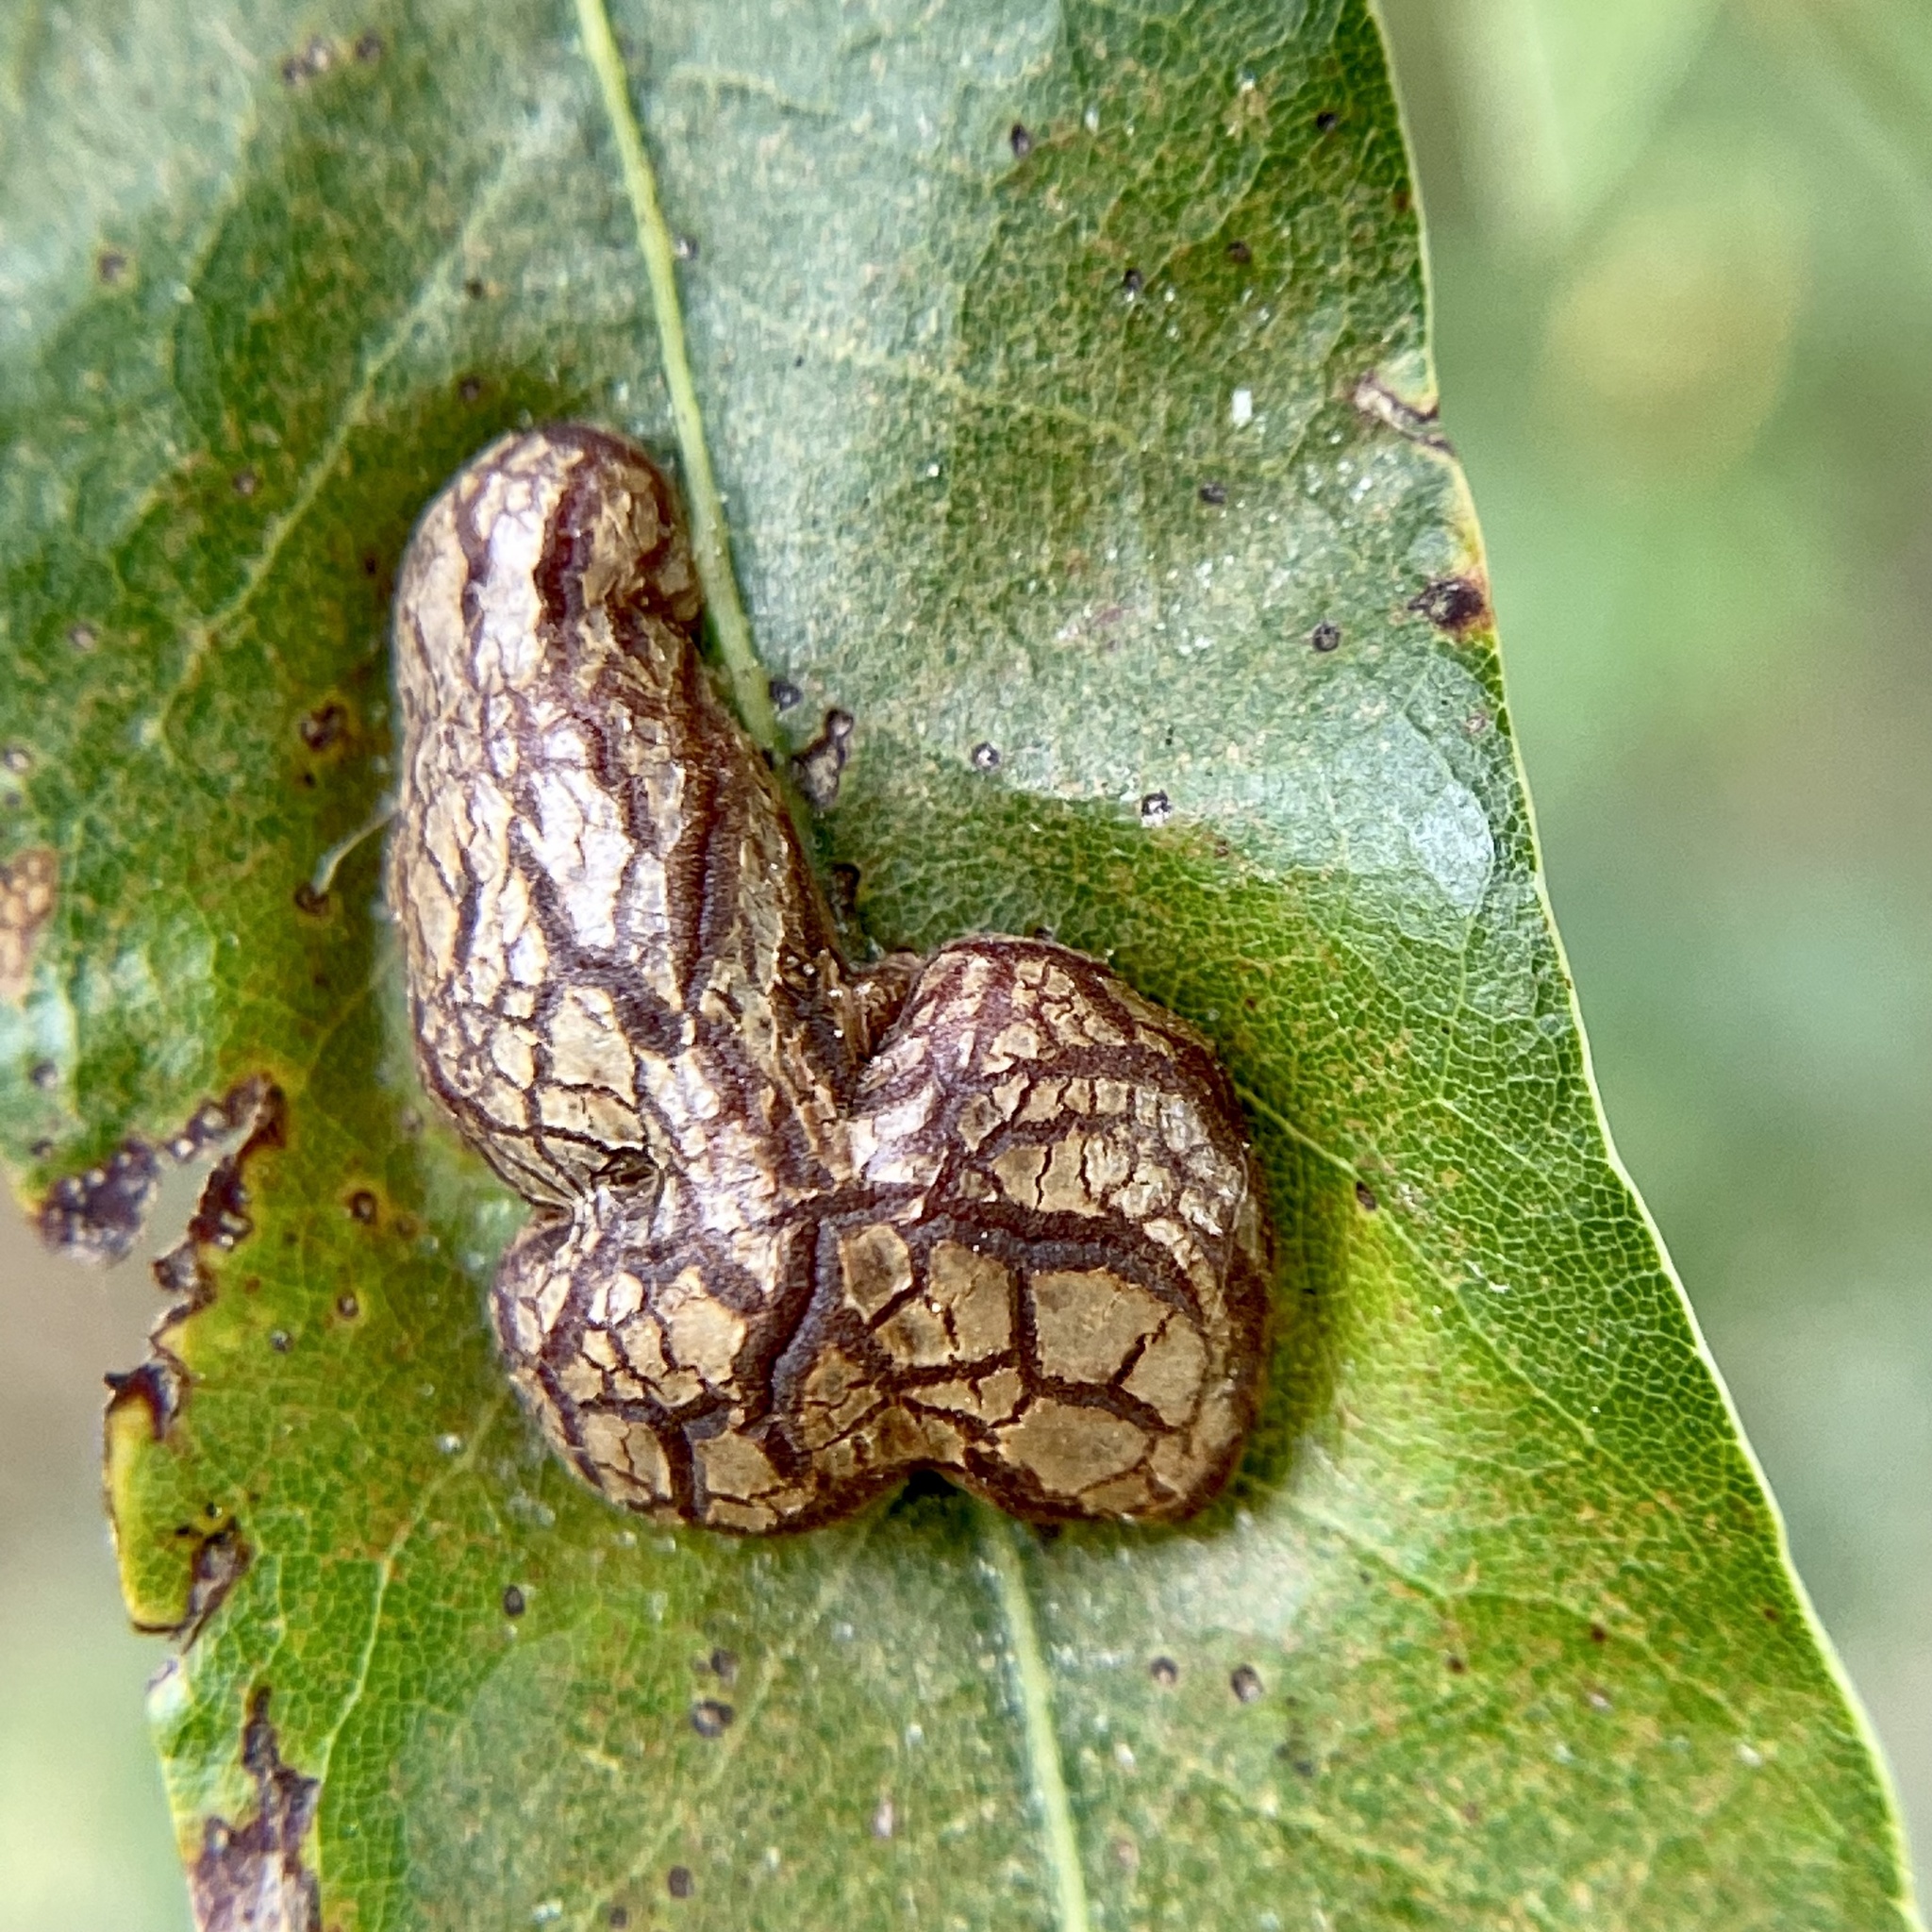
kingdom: Animalia
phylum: Arthropoda
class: Insecta
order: Diptera
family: Cecidomyiidae
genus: Polystepha
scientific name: Polystepha pilulae
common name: Oak leaf gall midge
